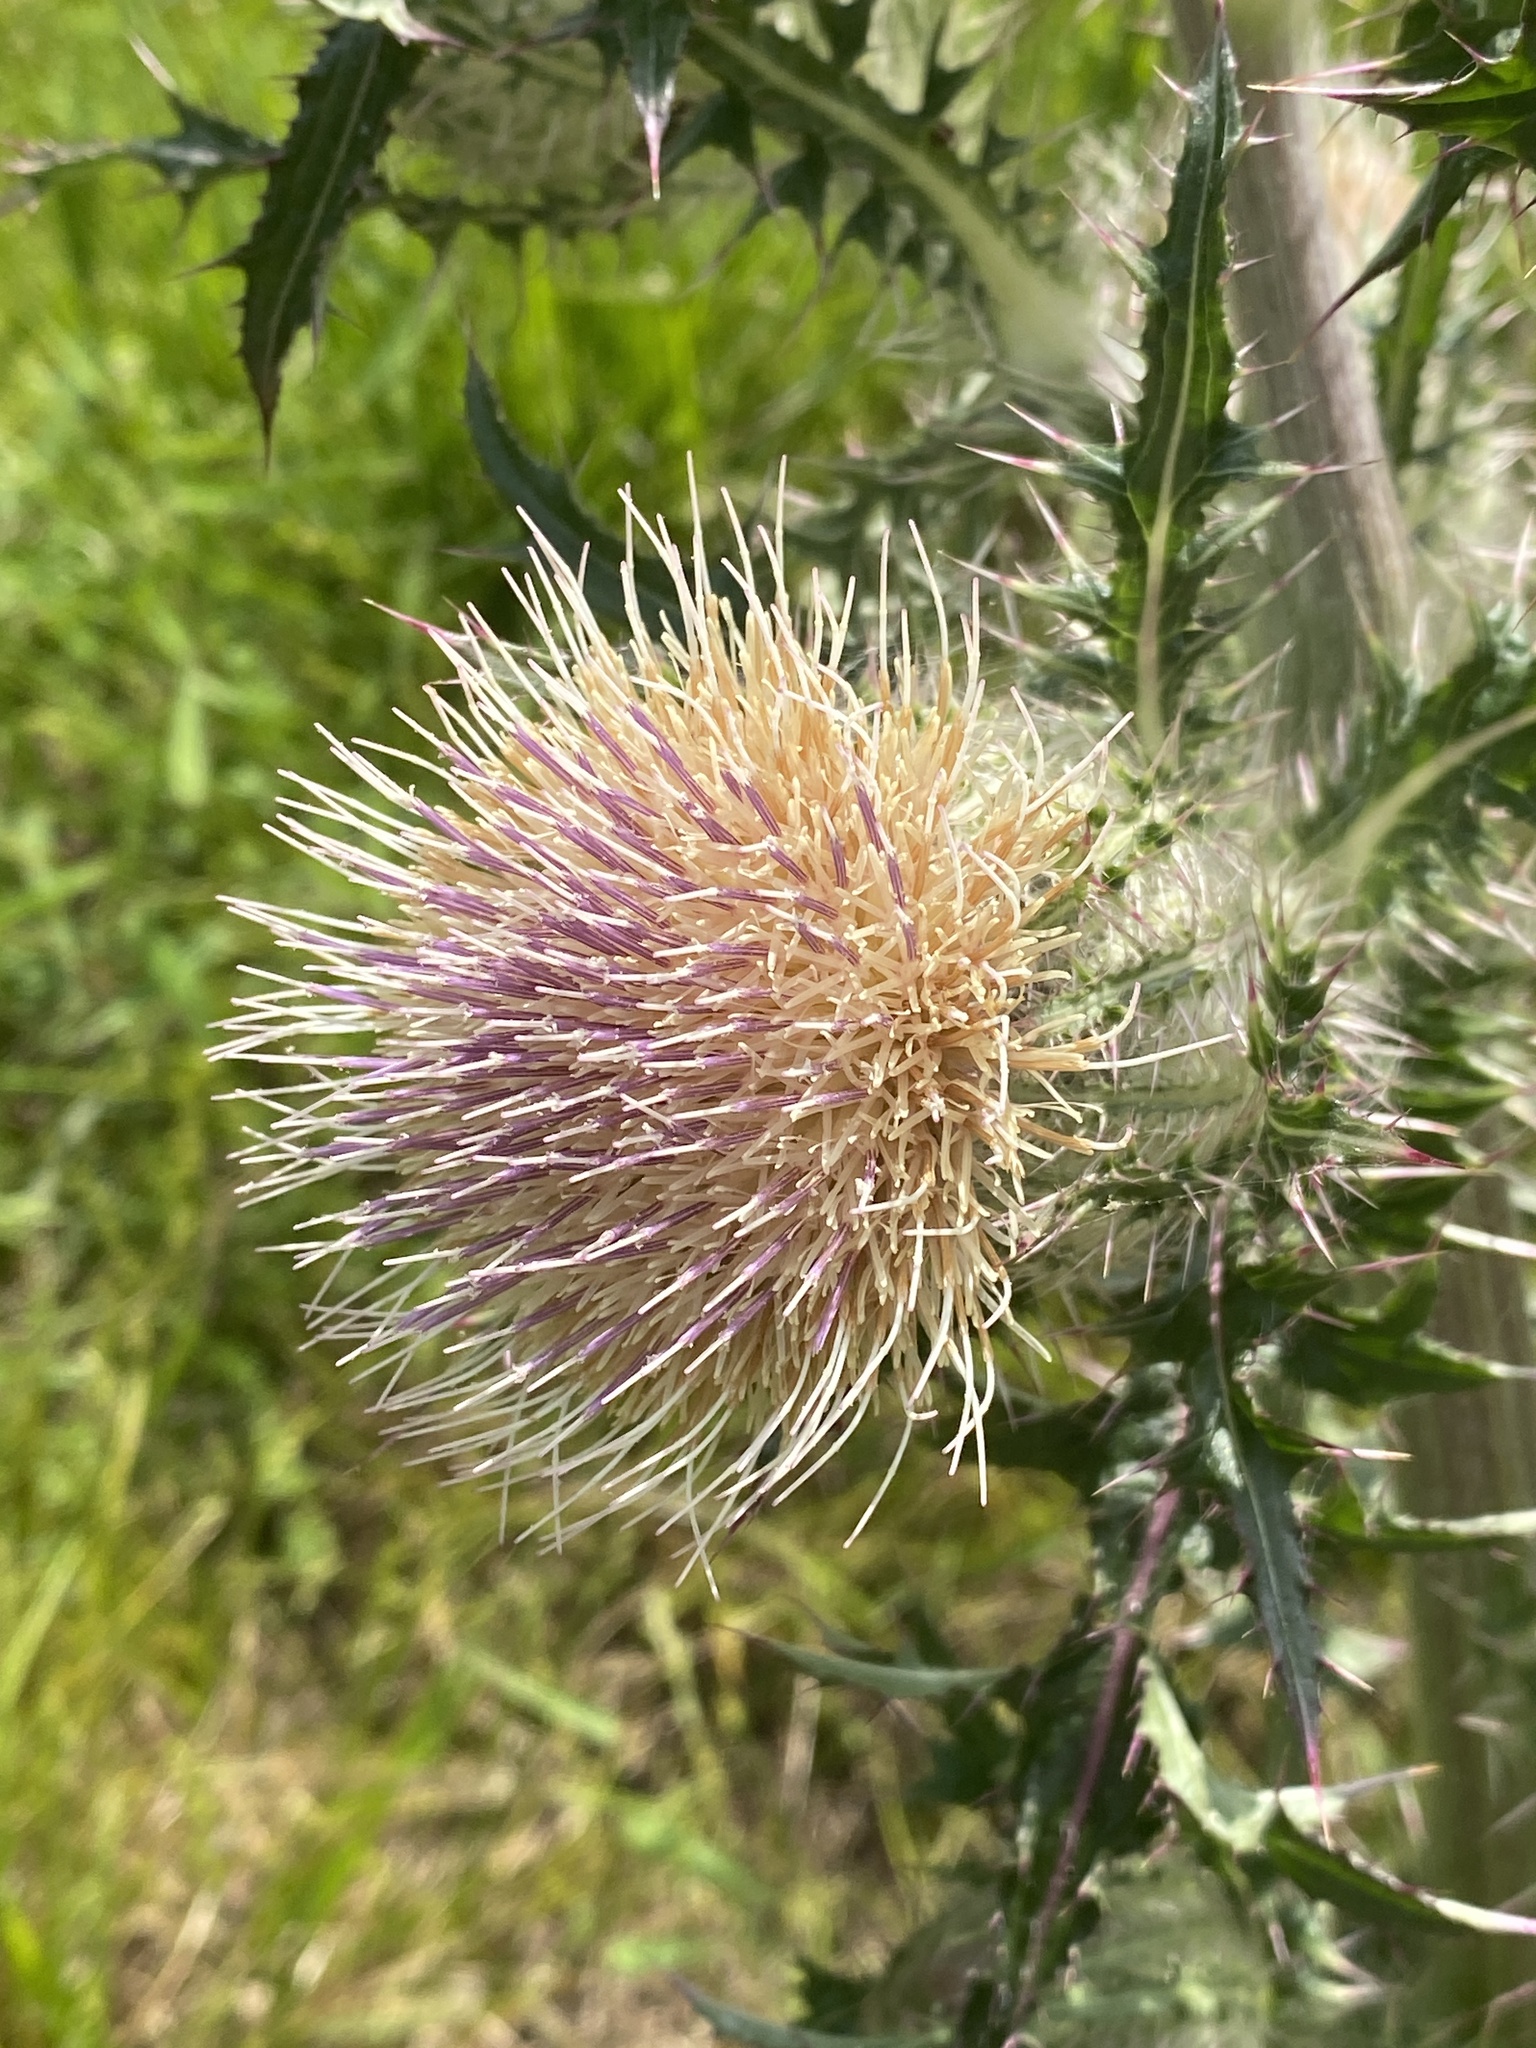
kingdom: Plantae
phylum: Tracheophyta
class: Magnoliopsida
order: Asterales
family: Asteraceae
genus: Cirsium
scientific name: Cirsium horridulum
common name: Bristly thistle
